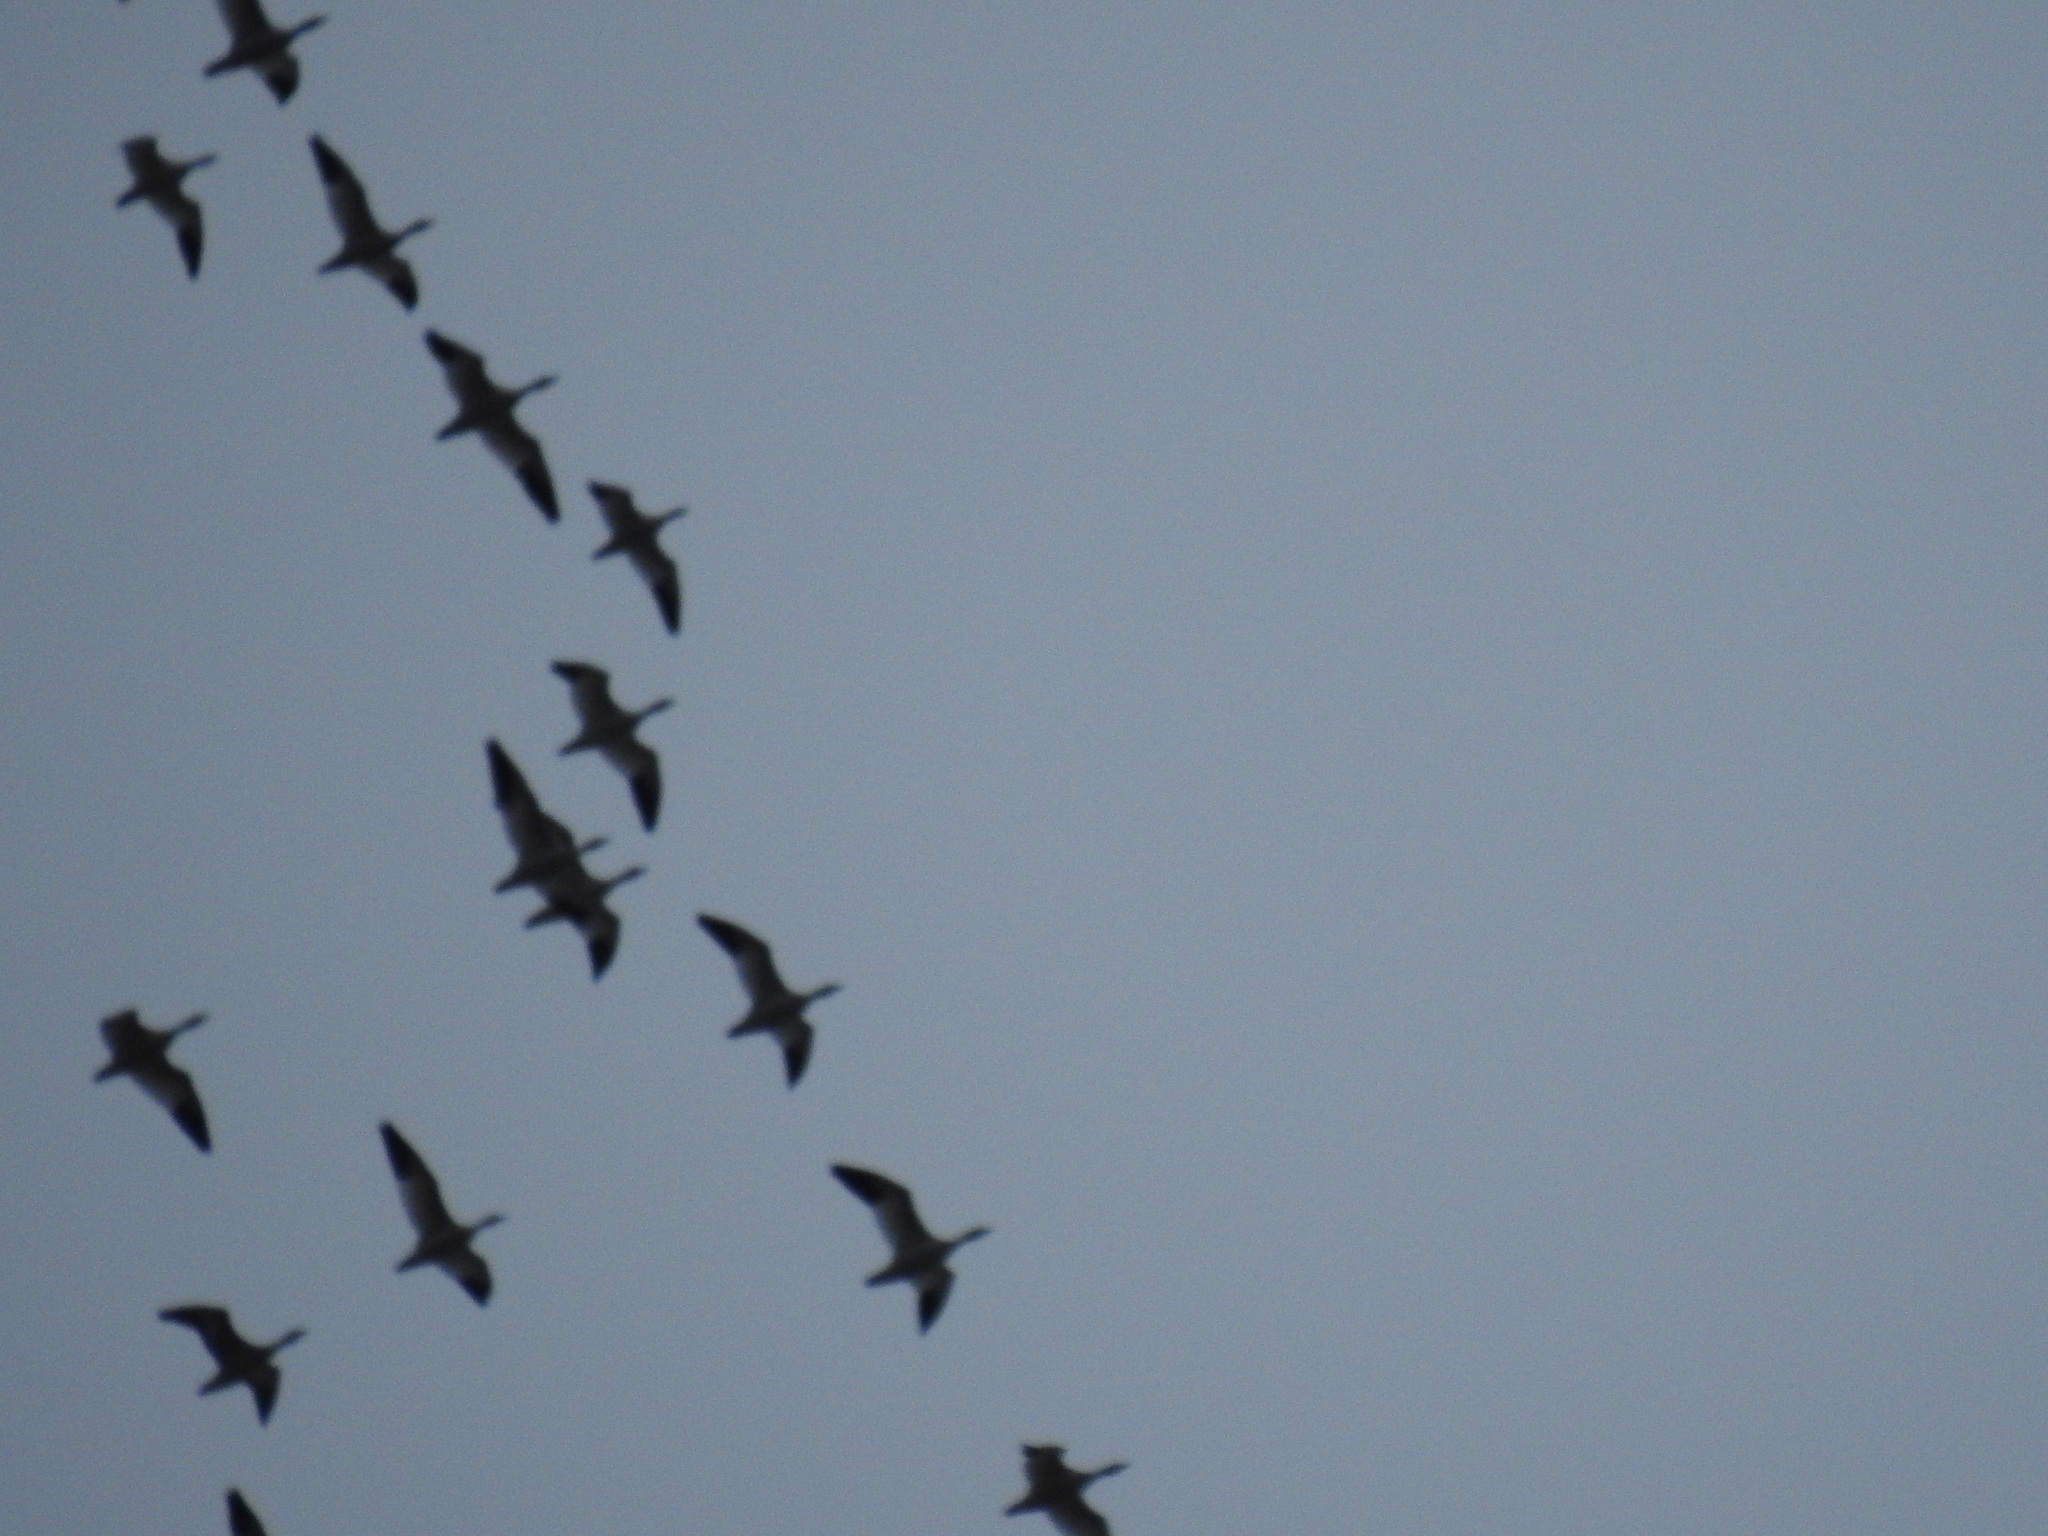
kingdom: Animalia
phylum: Chordata
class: Aves
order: Anseriformes
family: Anatidae
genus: Anser
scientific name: Anser caerulescens
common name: Snow goose
